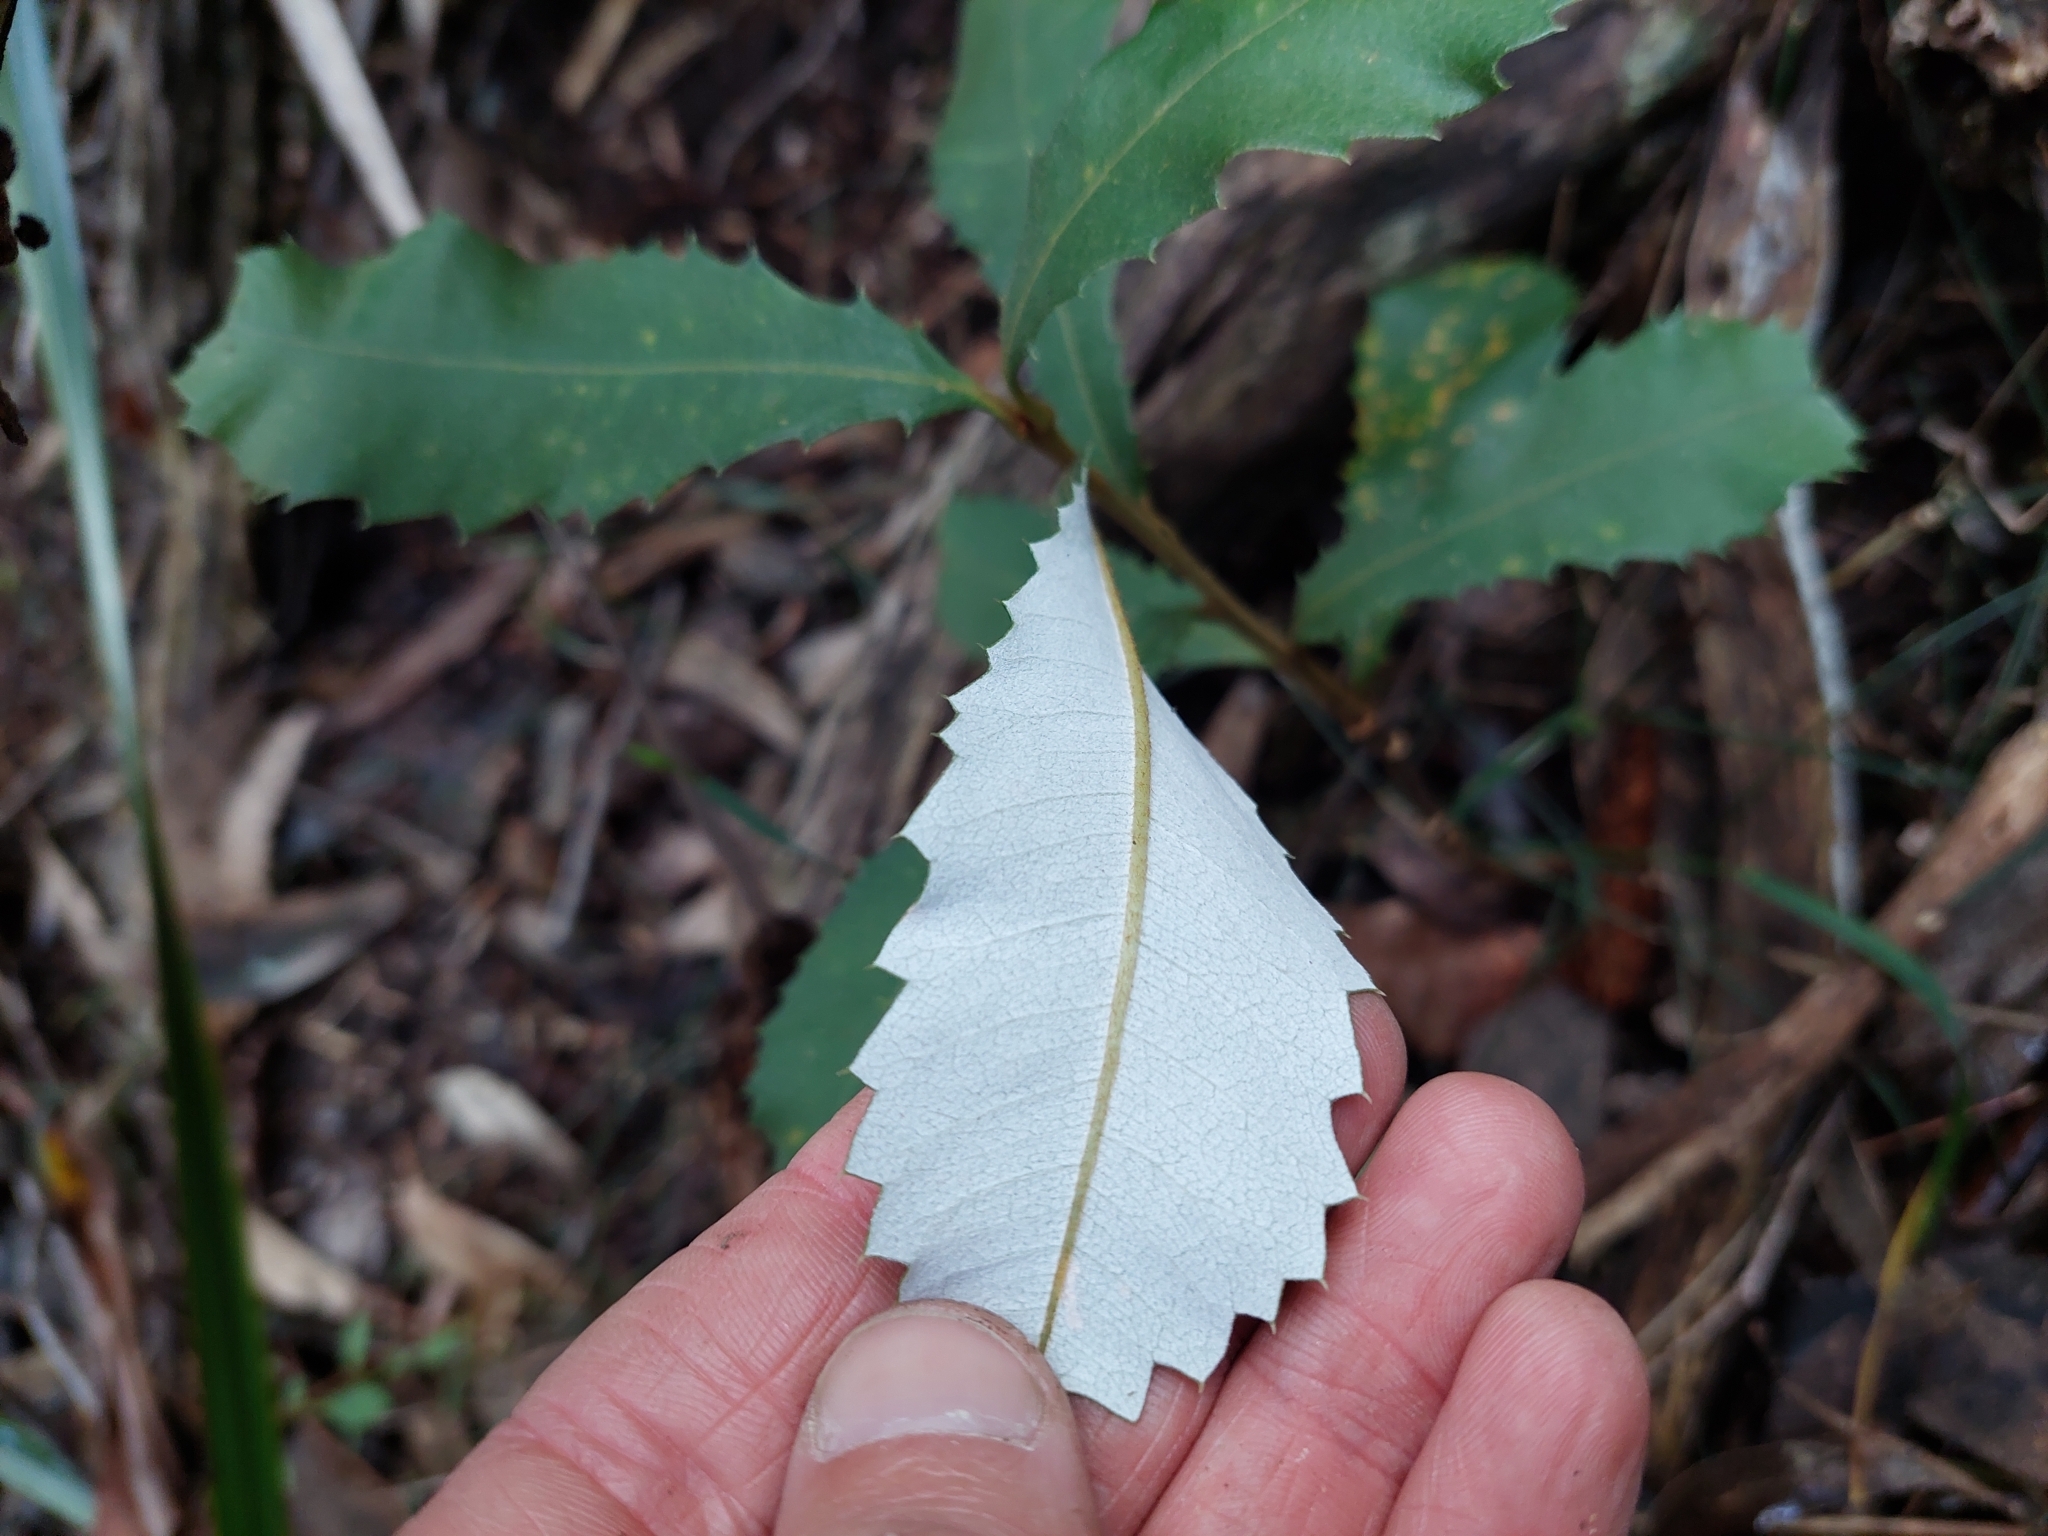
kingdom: Plantae
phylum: Tracheophyta
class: Magnoliopsida
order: Proteales
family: Proteaceae
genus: Banksia
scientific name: Banksia saxicola
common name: Grampians banksia
